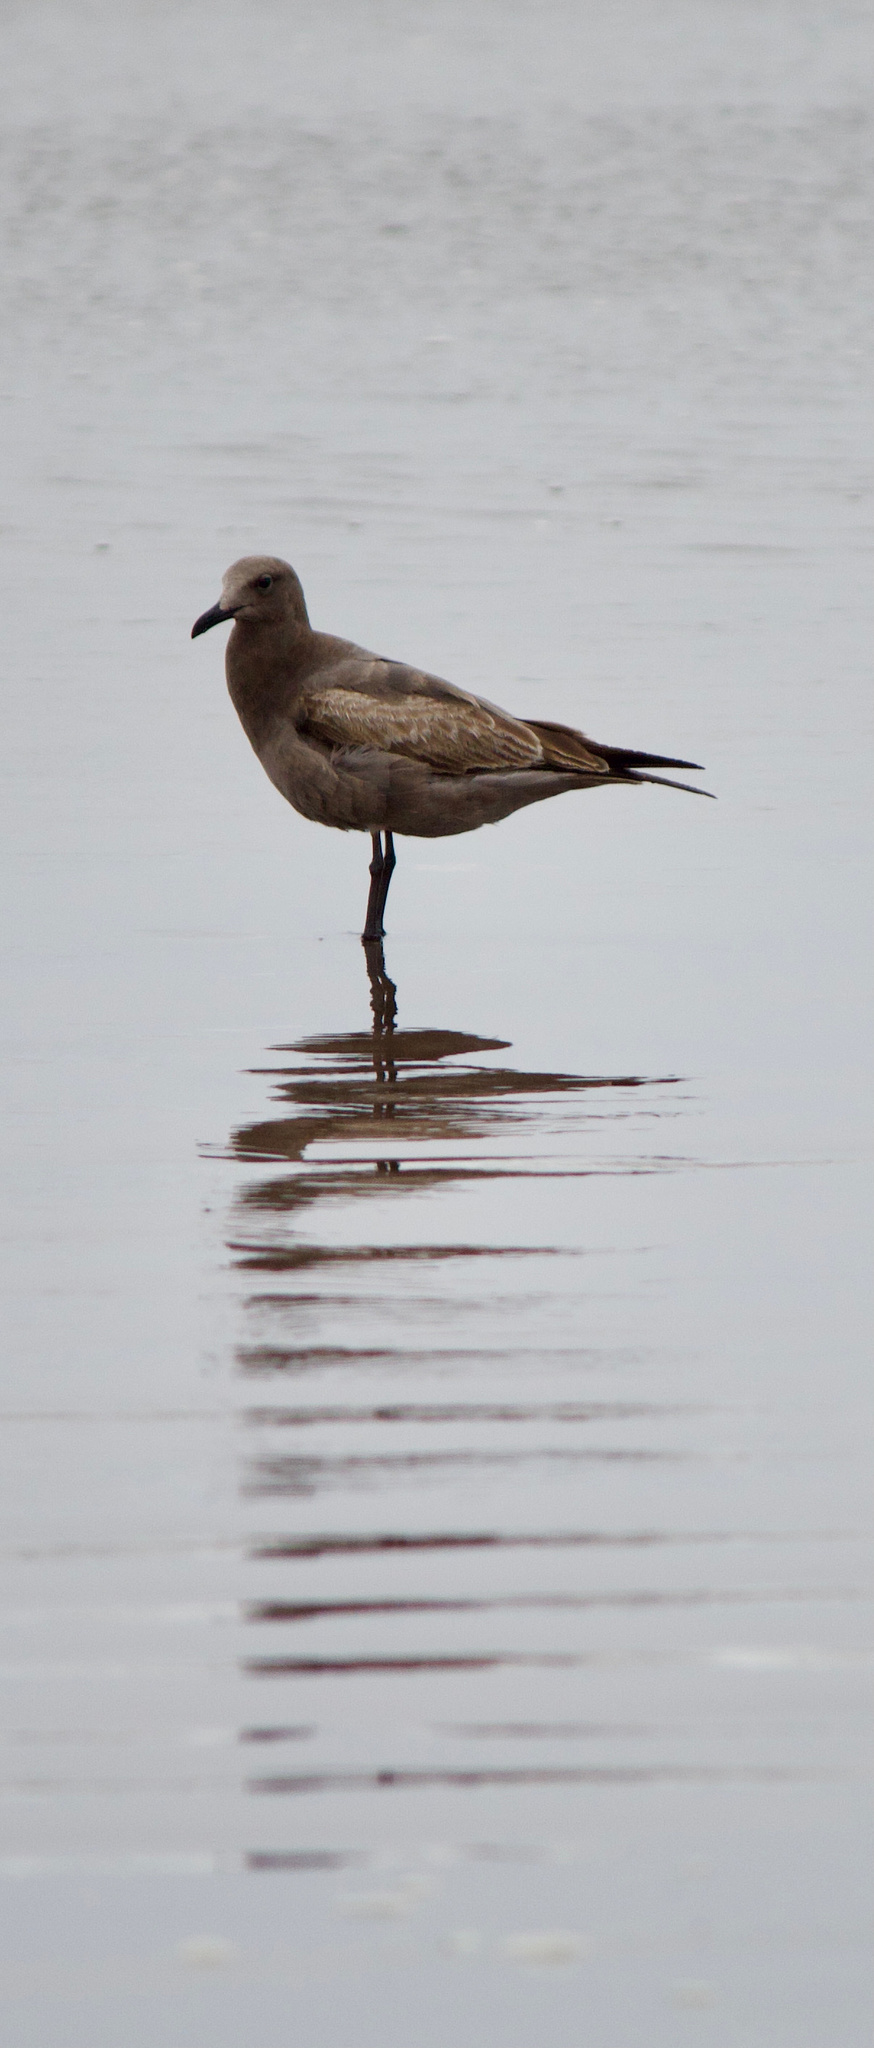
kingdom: Animalia
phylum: Chordata
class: Aves
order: Charadriiformes
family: Laridae
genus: Leucophaeus
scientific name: Leucophaeus modestus
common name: Gray gull
